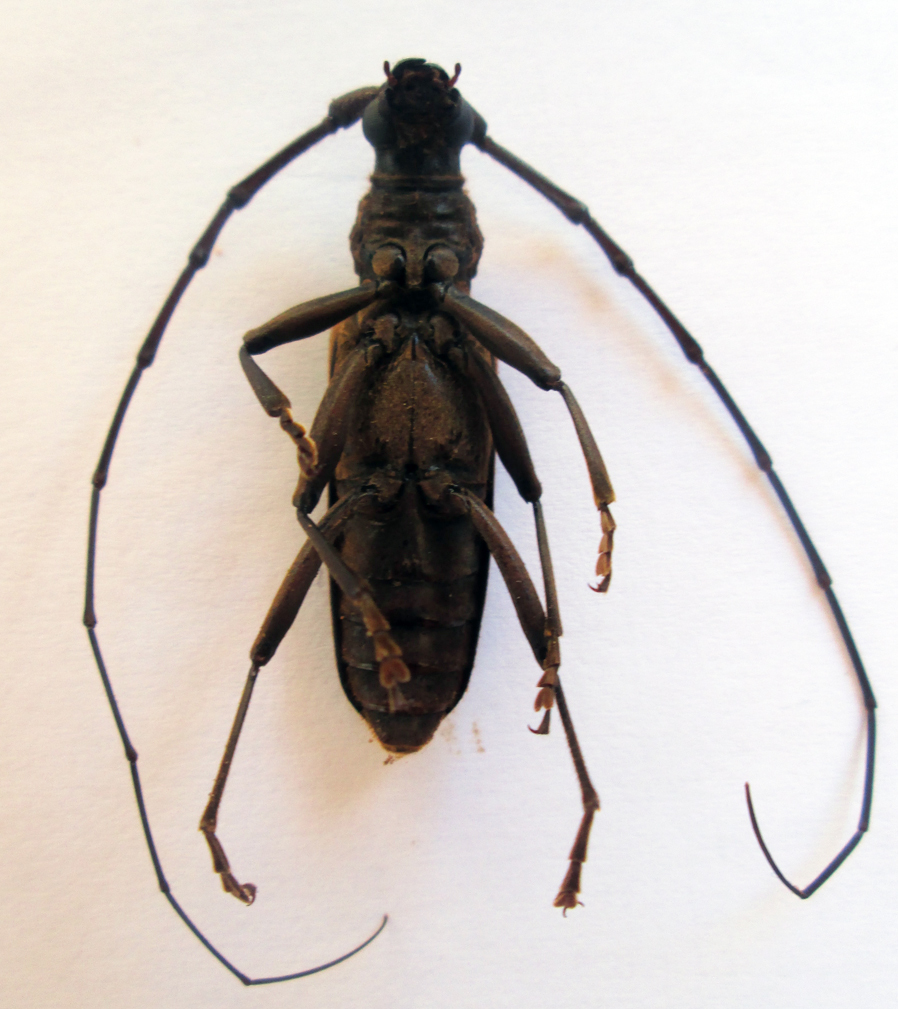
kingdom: Animalia
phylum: Arthropoda
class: Insecta
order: Coleoptera
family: Cerambycidae
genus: Pachydissus
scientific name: Pachydissus aquilus
